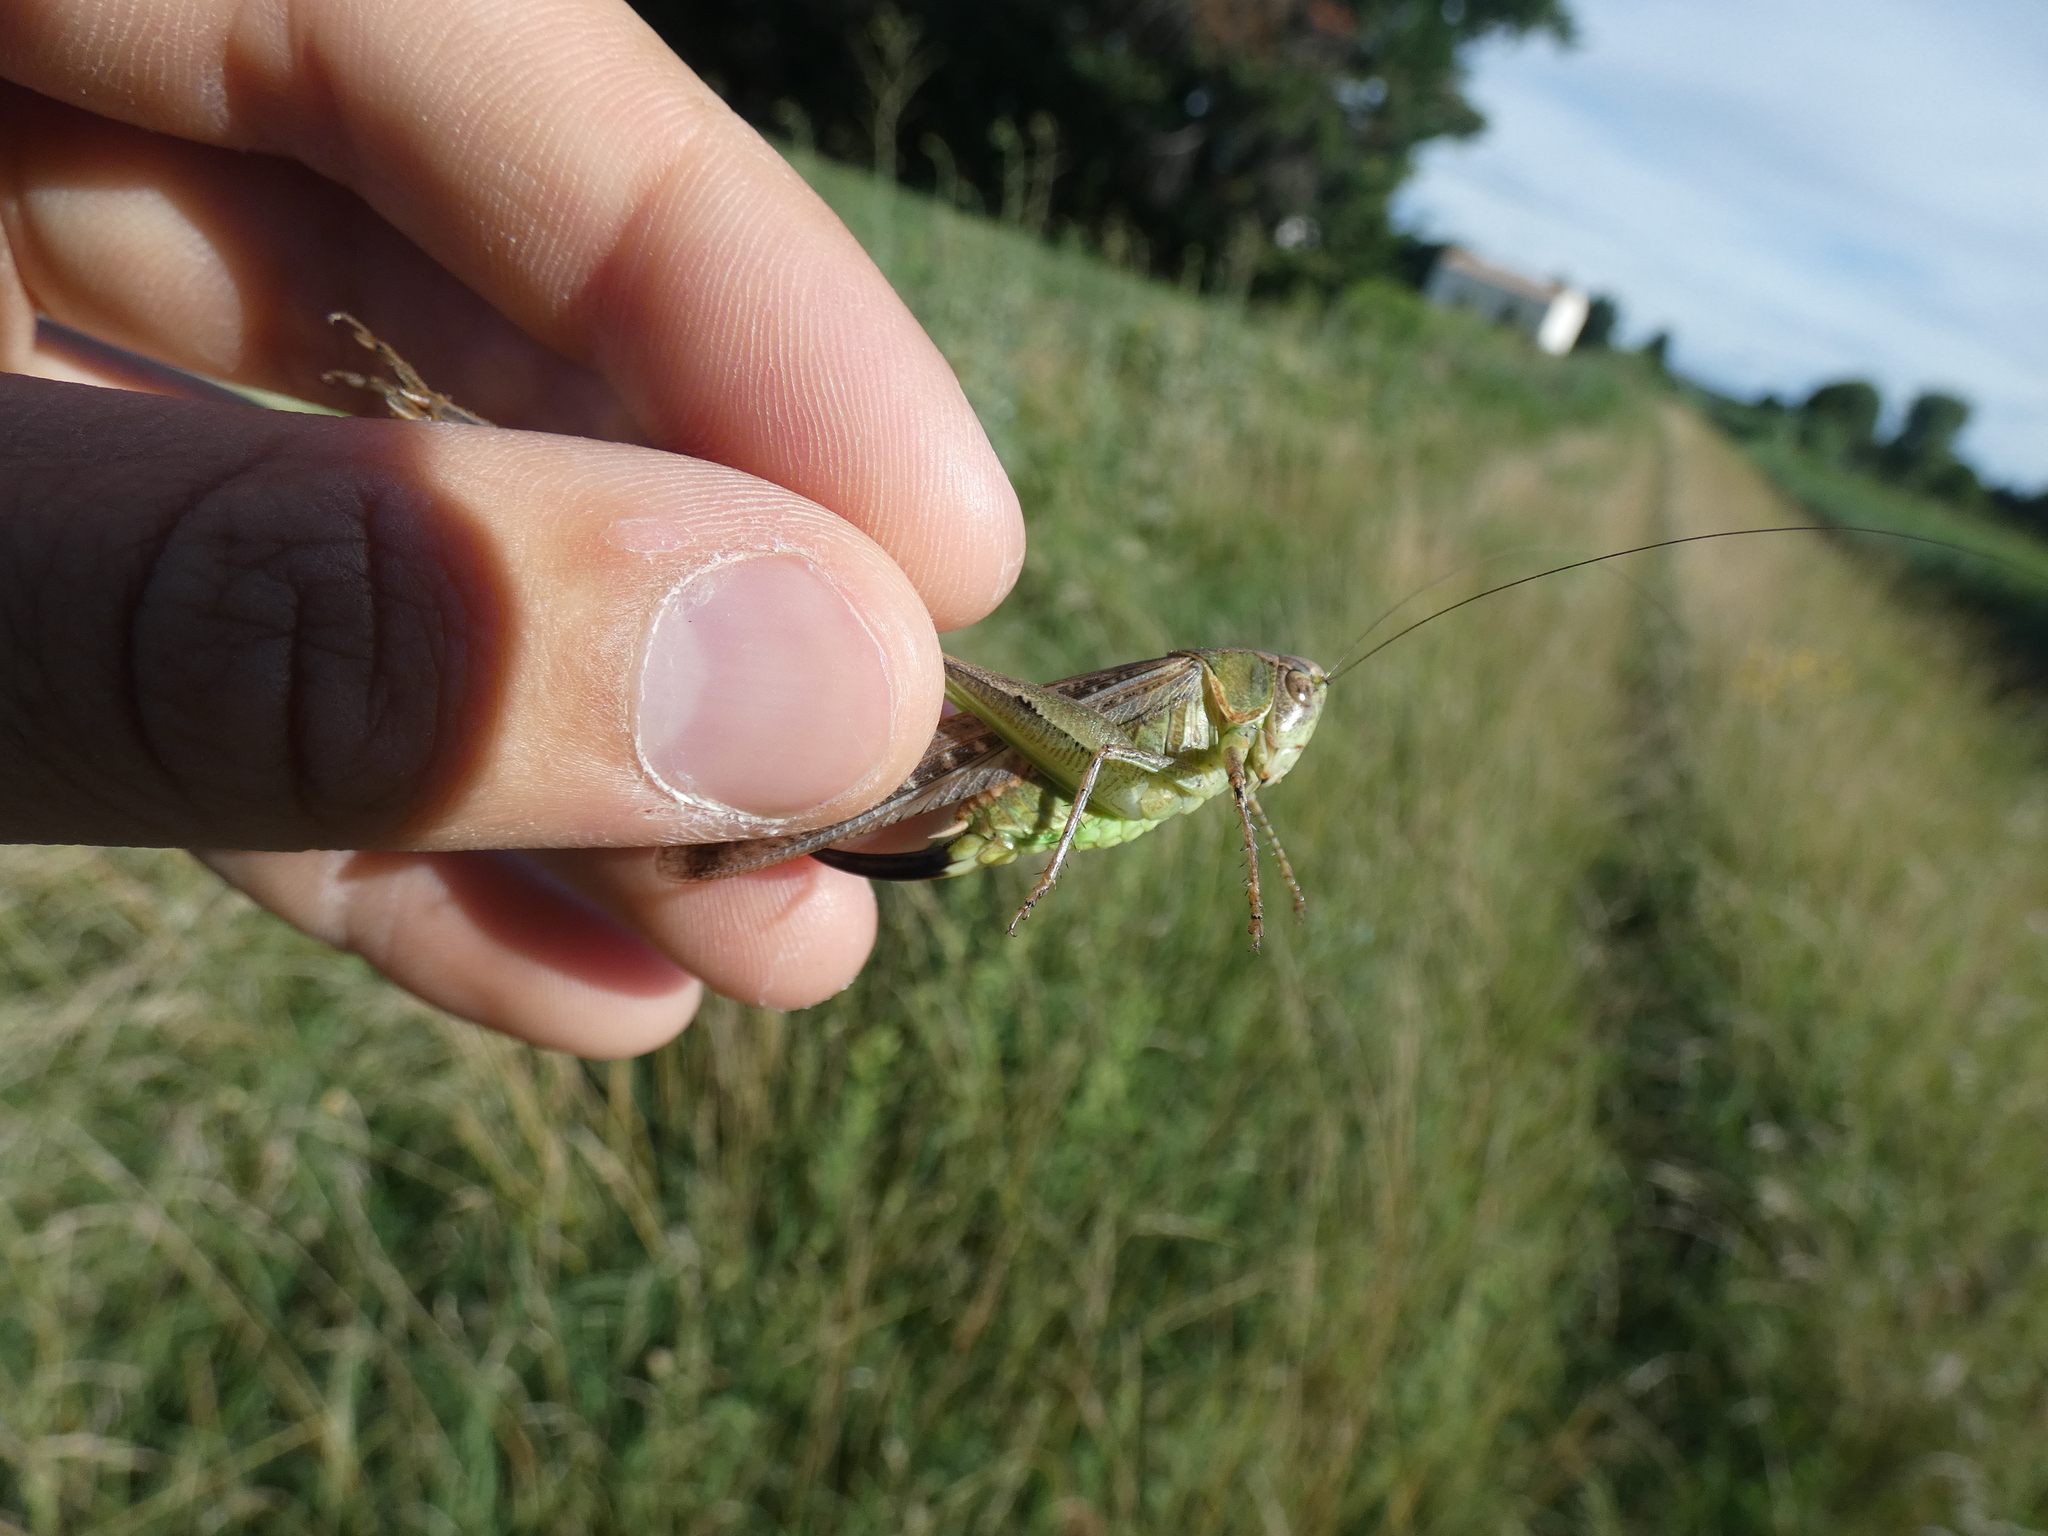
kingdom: Animalia
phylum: Arthropoda
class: Insecta
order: Orthoptera
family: Tettigoniidae
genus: Platycleis
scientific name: Platycleis sabulosa
